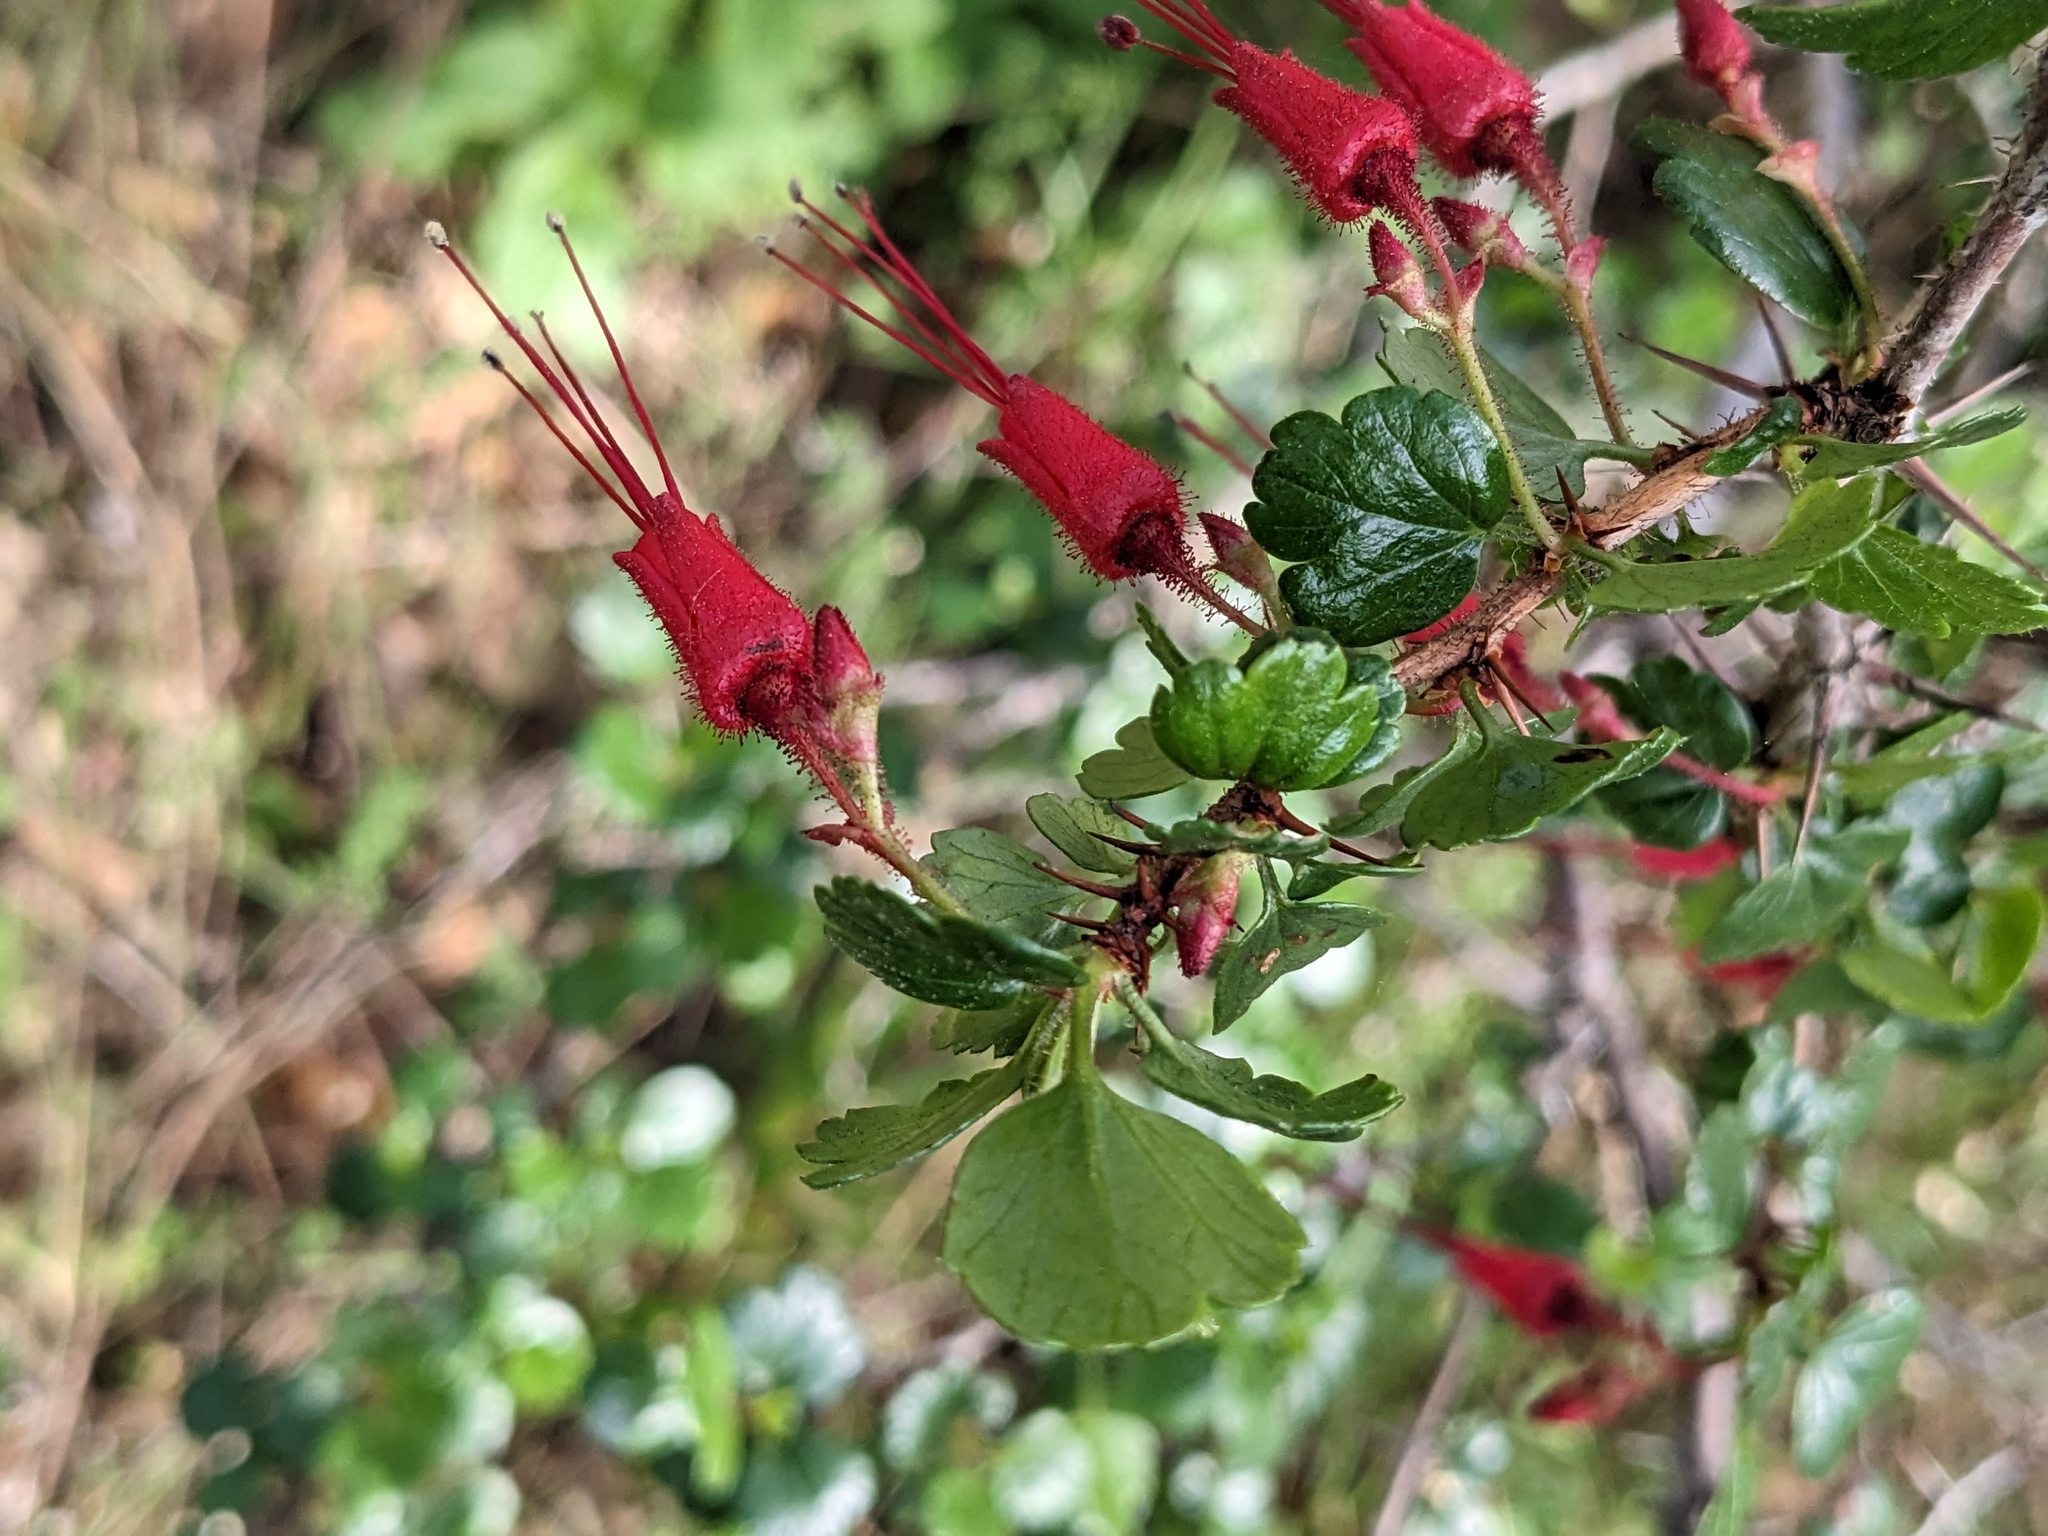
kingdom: Plantae
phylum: Tracheophyta
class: Magnoliopsida
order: Saxifragales
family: Grossulariaceae
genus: Ribes
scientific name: Ribes speciosum
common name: Fuchsia-flower gooseberry
